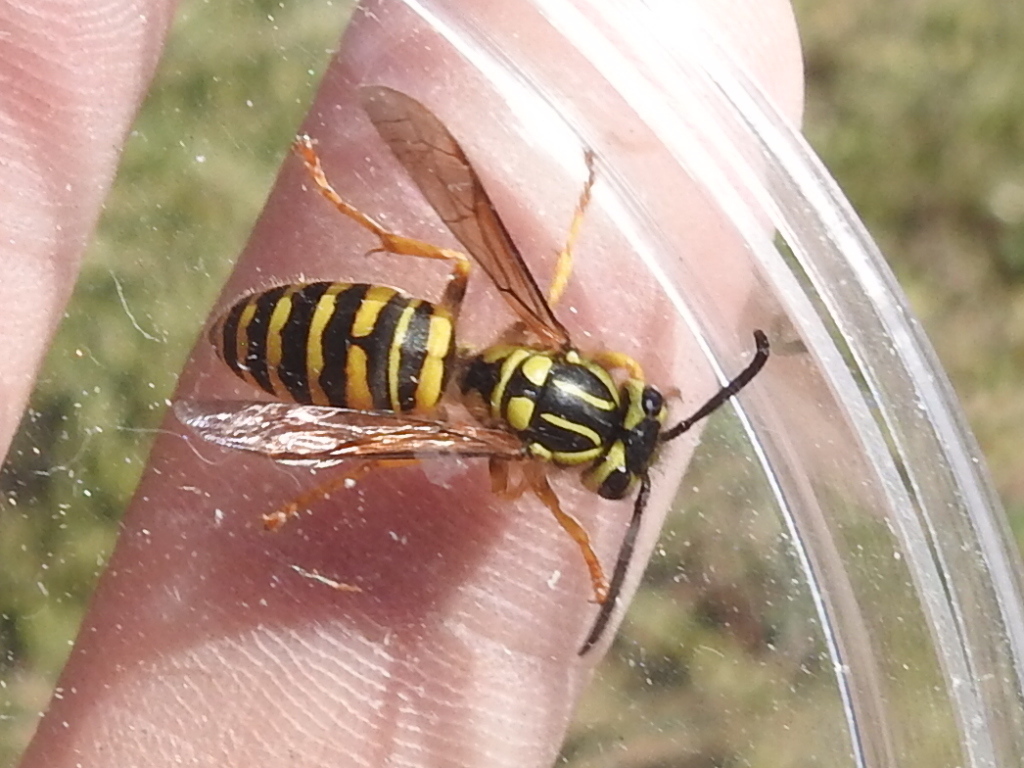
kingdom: Animalia
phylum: Arthropoda
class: Insecta
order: Hymenoptera
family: Vespidae
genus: Vespula
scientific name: Vespula squamosa
